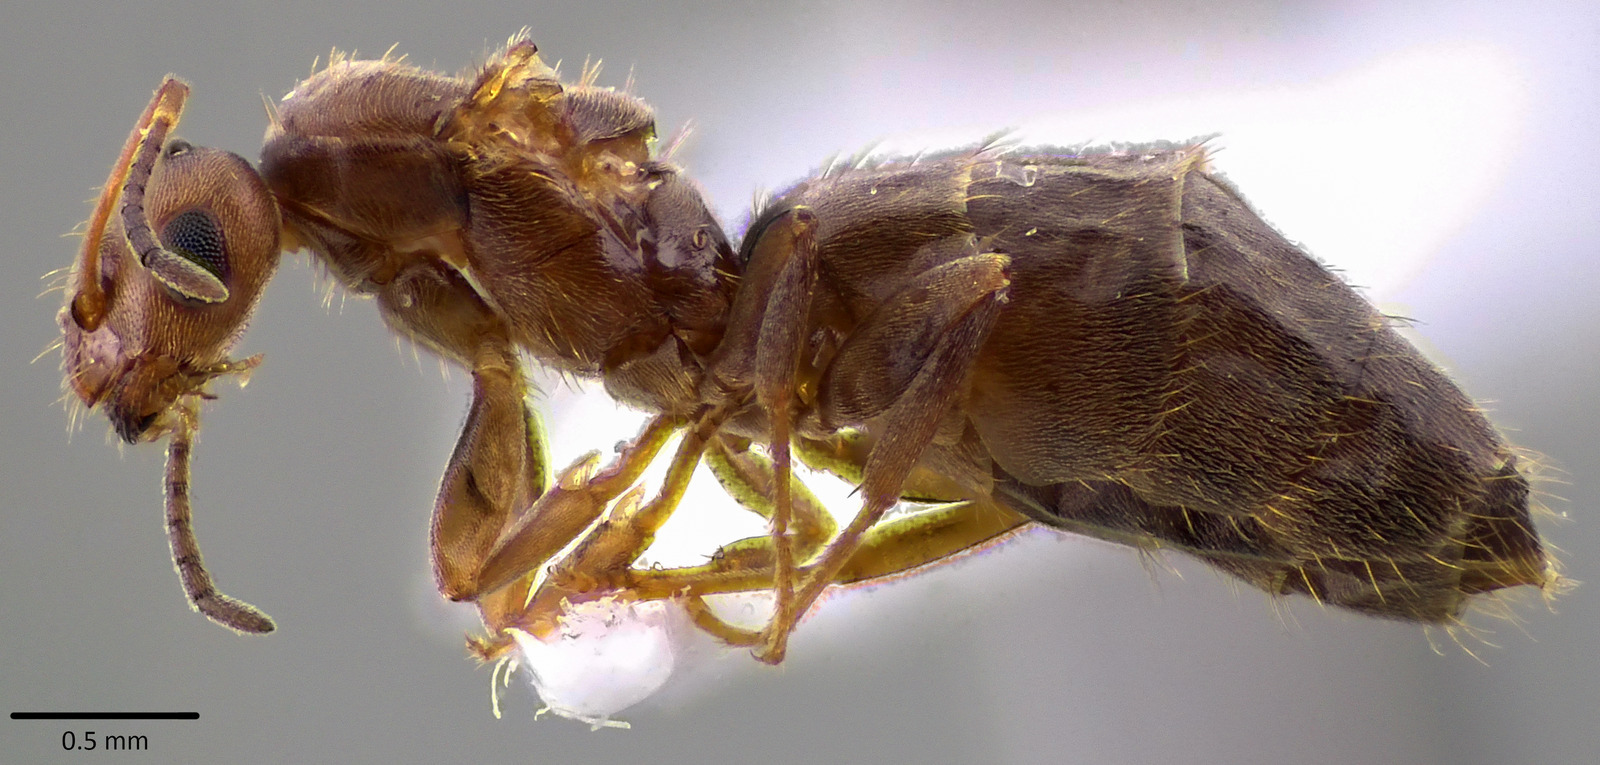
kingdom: Animalia
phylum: Arthropoda
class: Insecta
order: Hymenoptera
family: Formicidae
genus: Brachymyrmex
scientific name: Brachymyrmex patagonicus
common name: Dark rover ant
